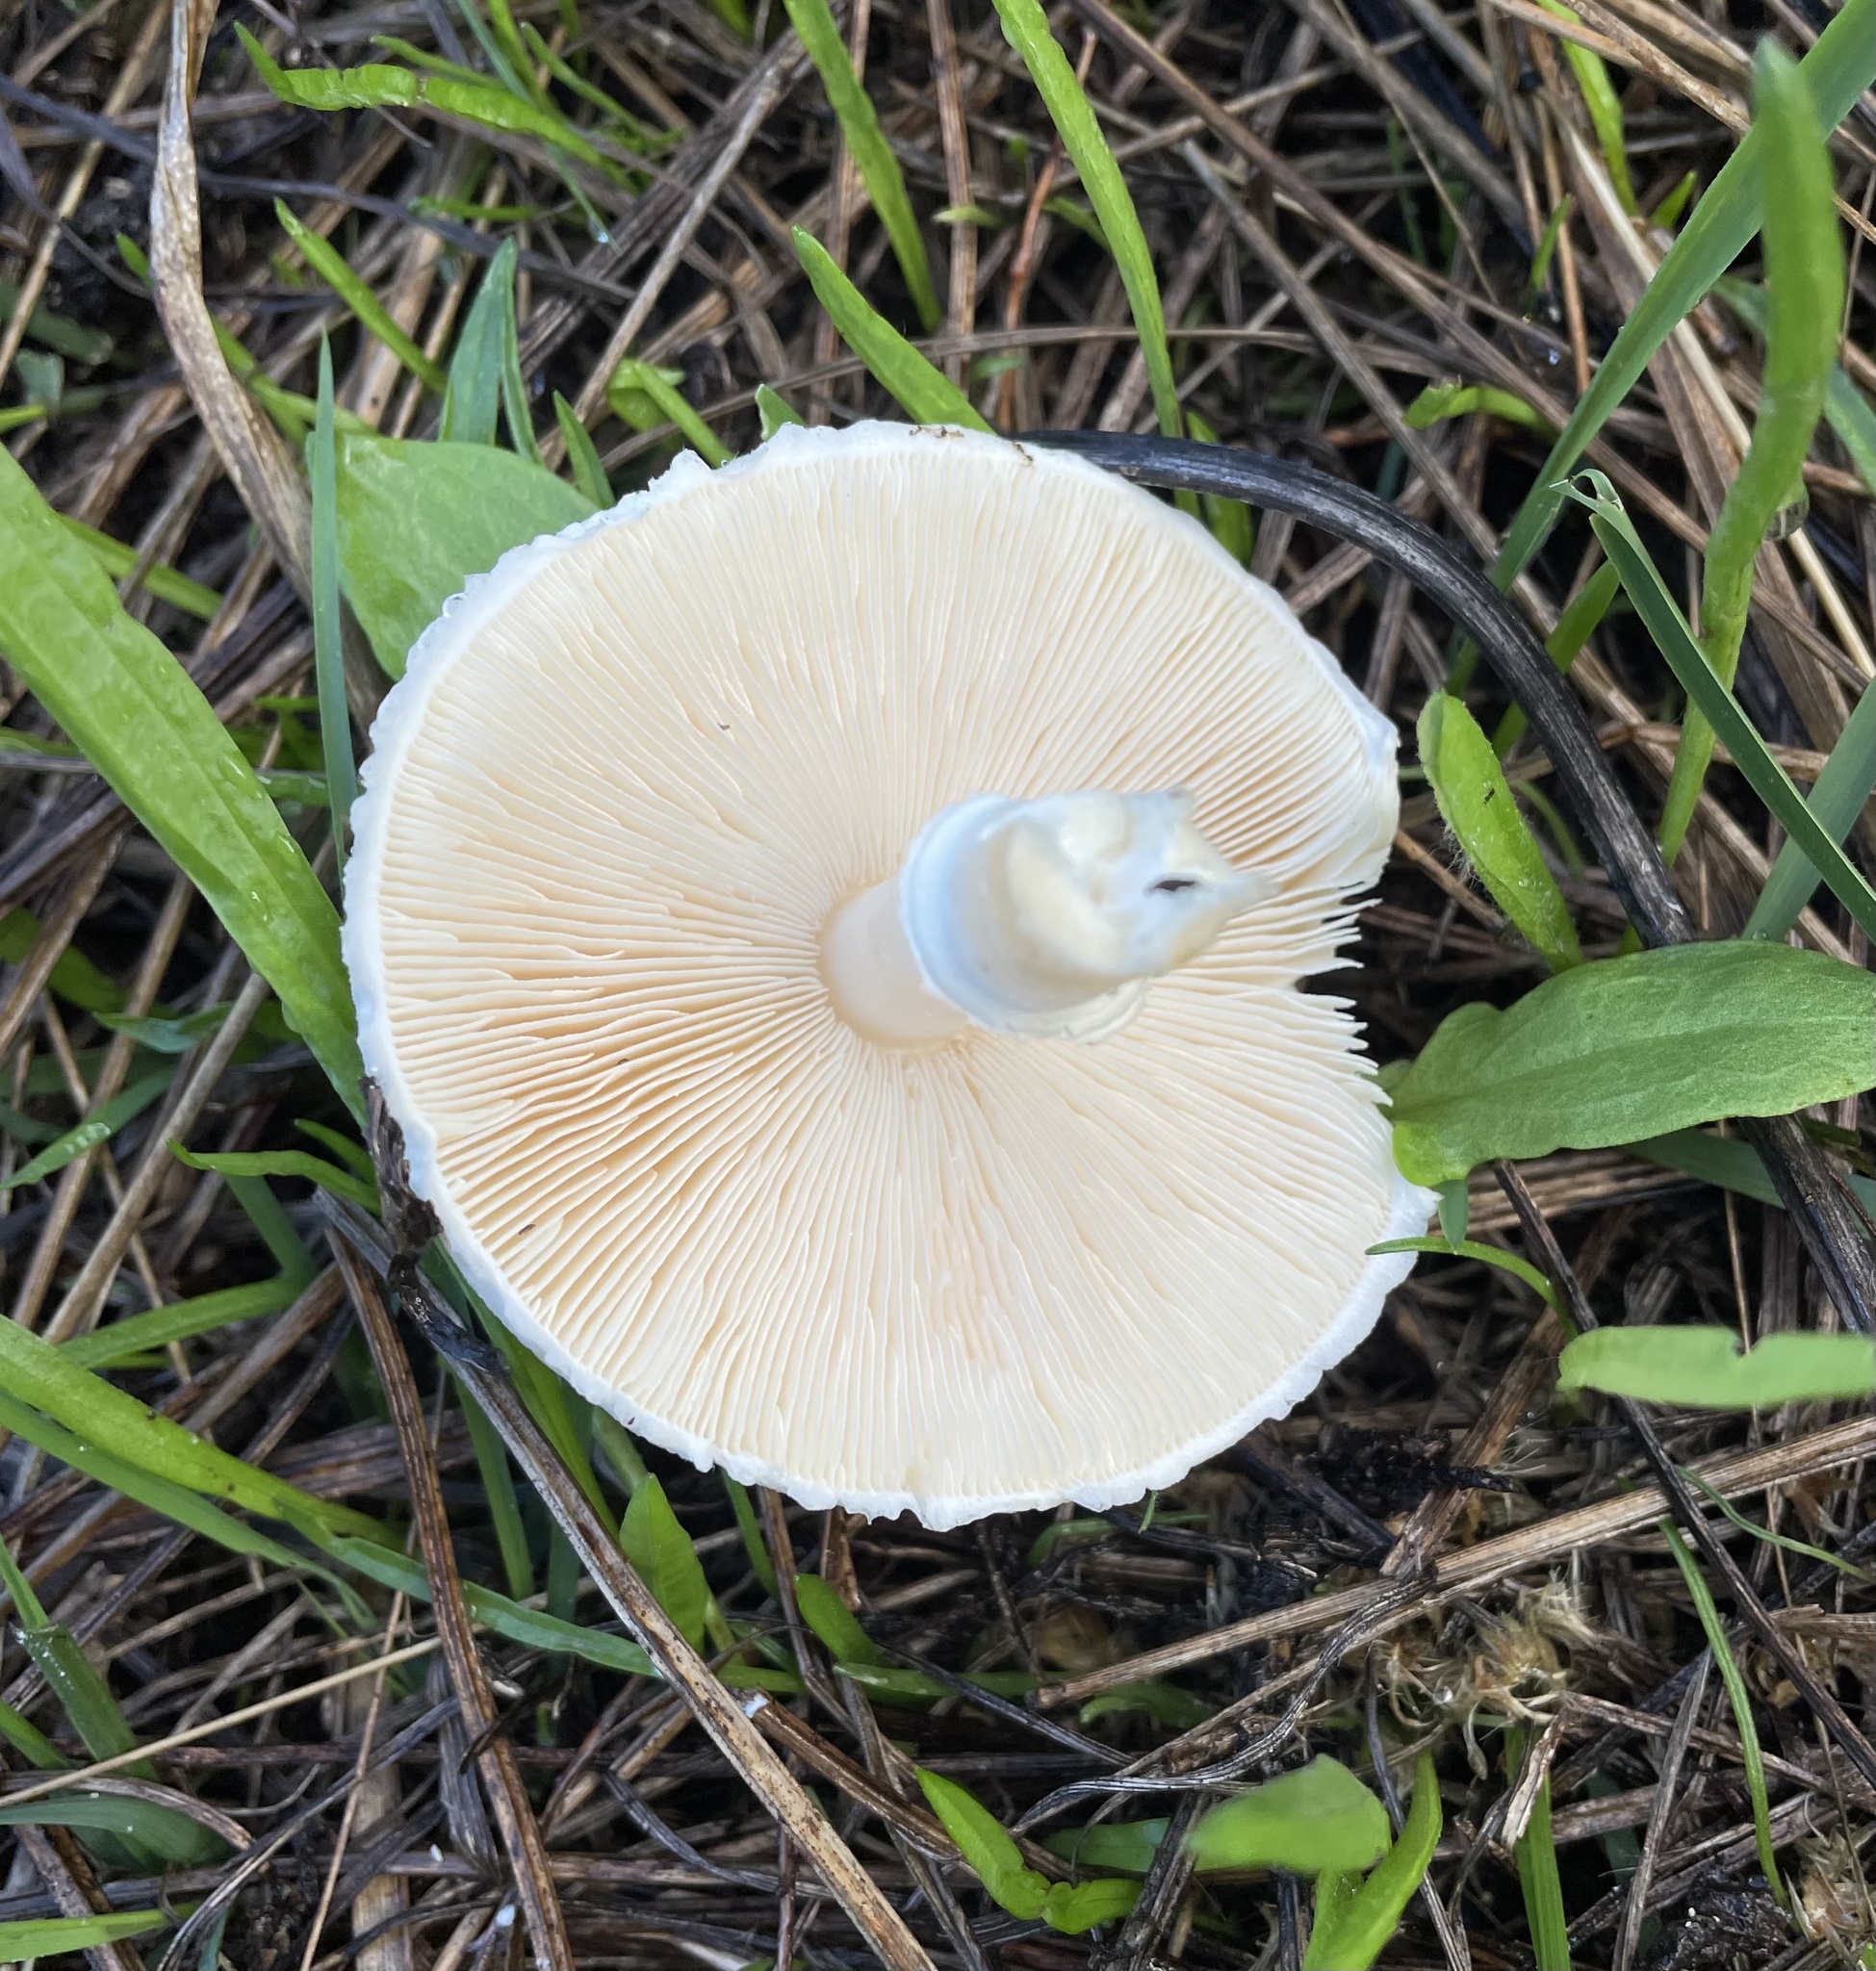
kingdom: Fungi
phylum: Basidiomycota
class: Agaricomycetes
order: Agaricales
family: Agaricaceae
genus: Leucoagaricus
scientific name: Leucoagaricus leucothites
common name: White dapperling
